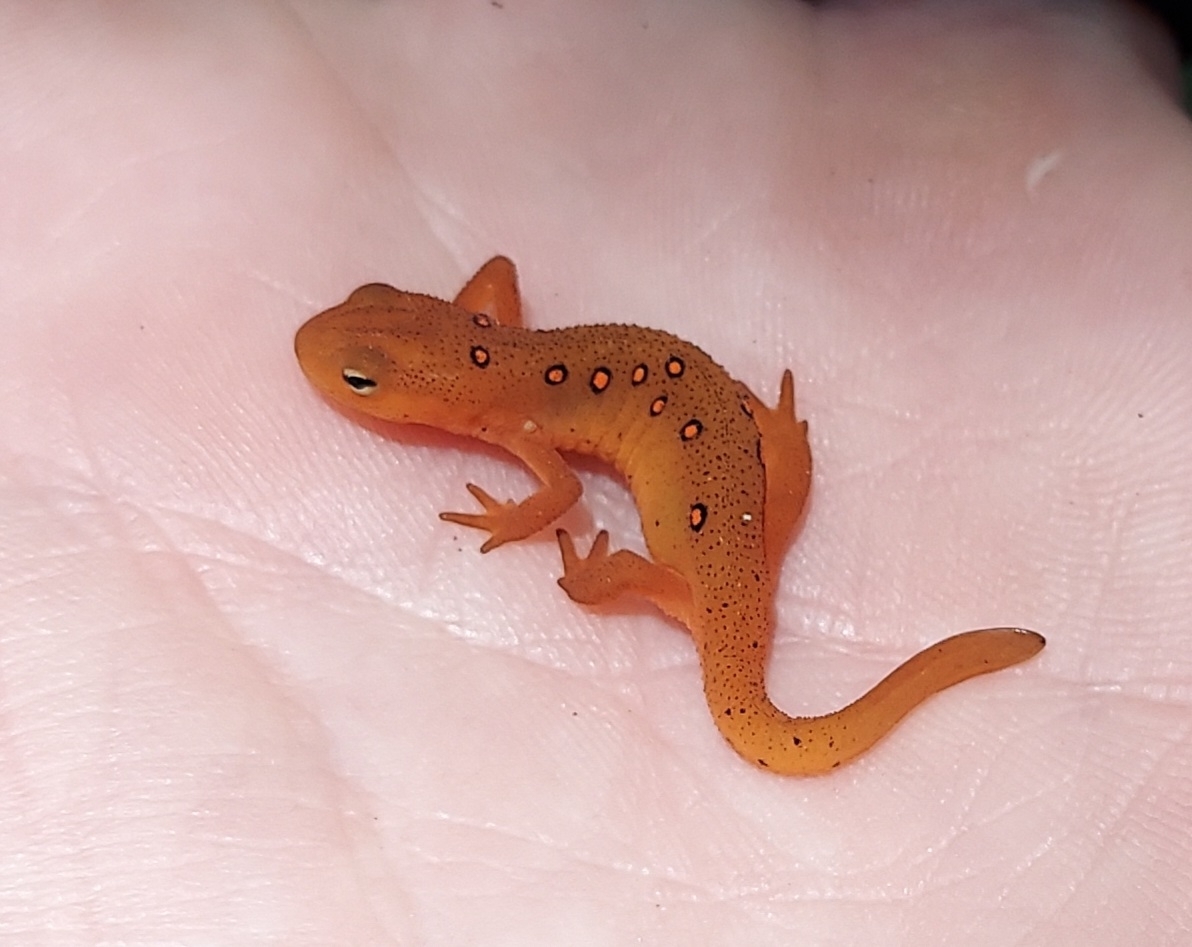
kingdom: Animalia
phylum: Chordata
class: Amphibia
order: Caudata
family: Salamandridae
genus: Notophthalmus
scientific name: Notophthalmus viridescens
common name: Eastern newt
